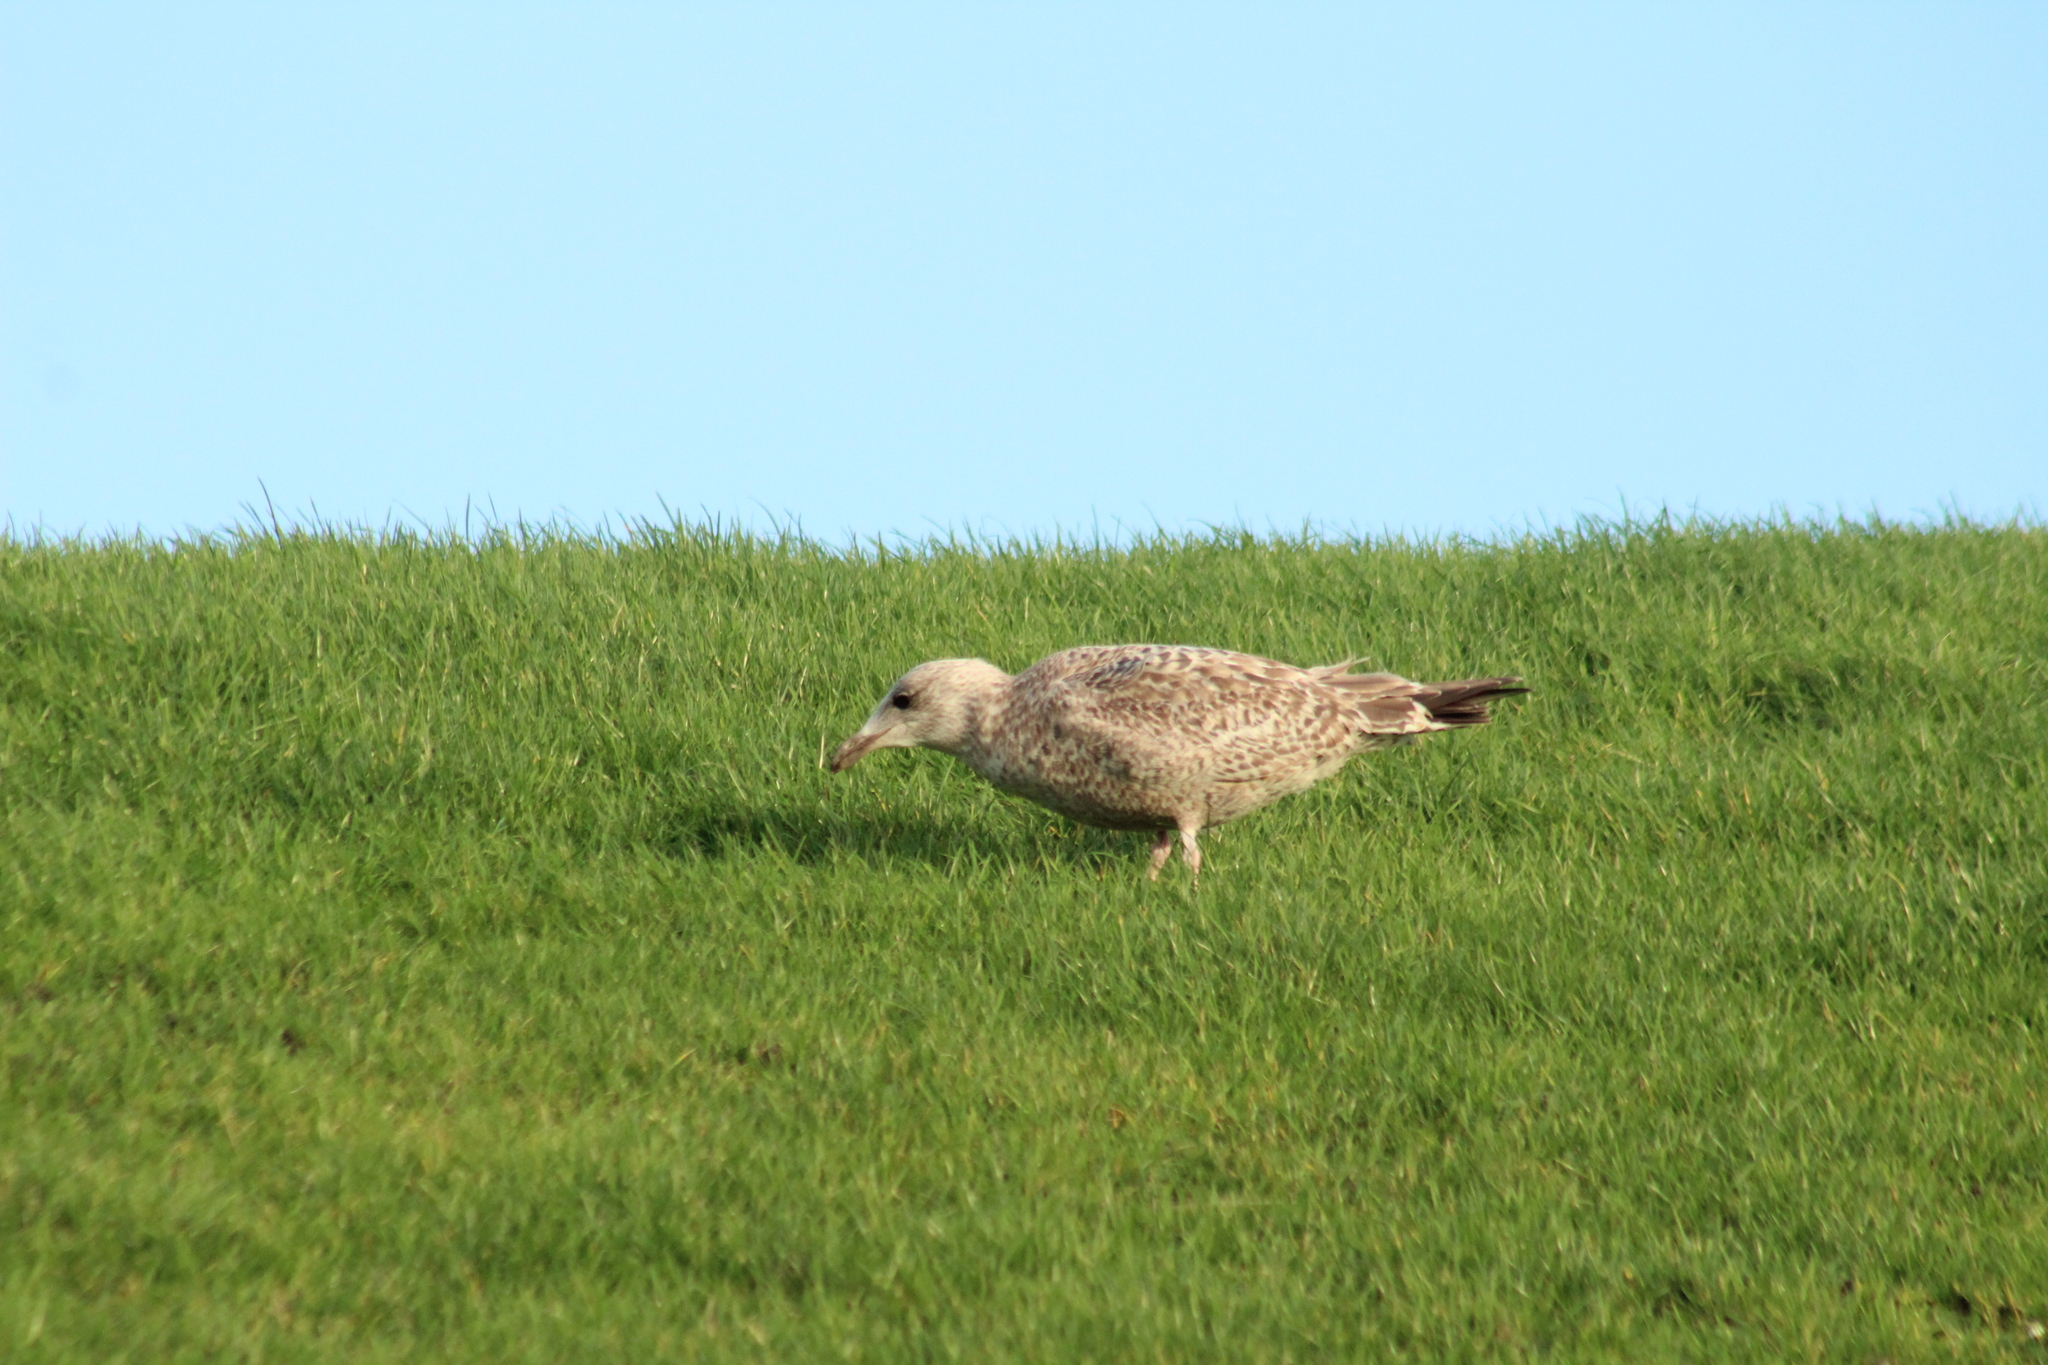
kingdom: Animalia
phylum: Chordata
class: Aves
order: Charadriiformes
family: Laridae
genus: Larus
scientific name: Larus argentatus
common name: Herring gull
